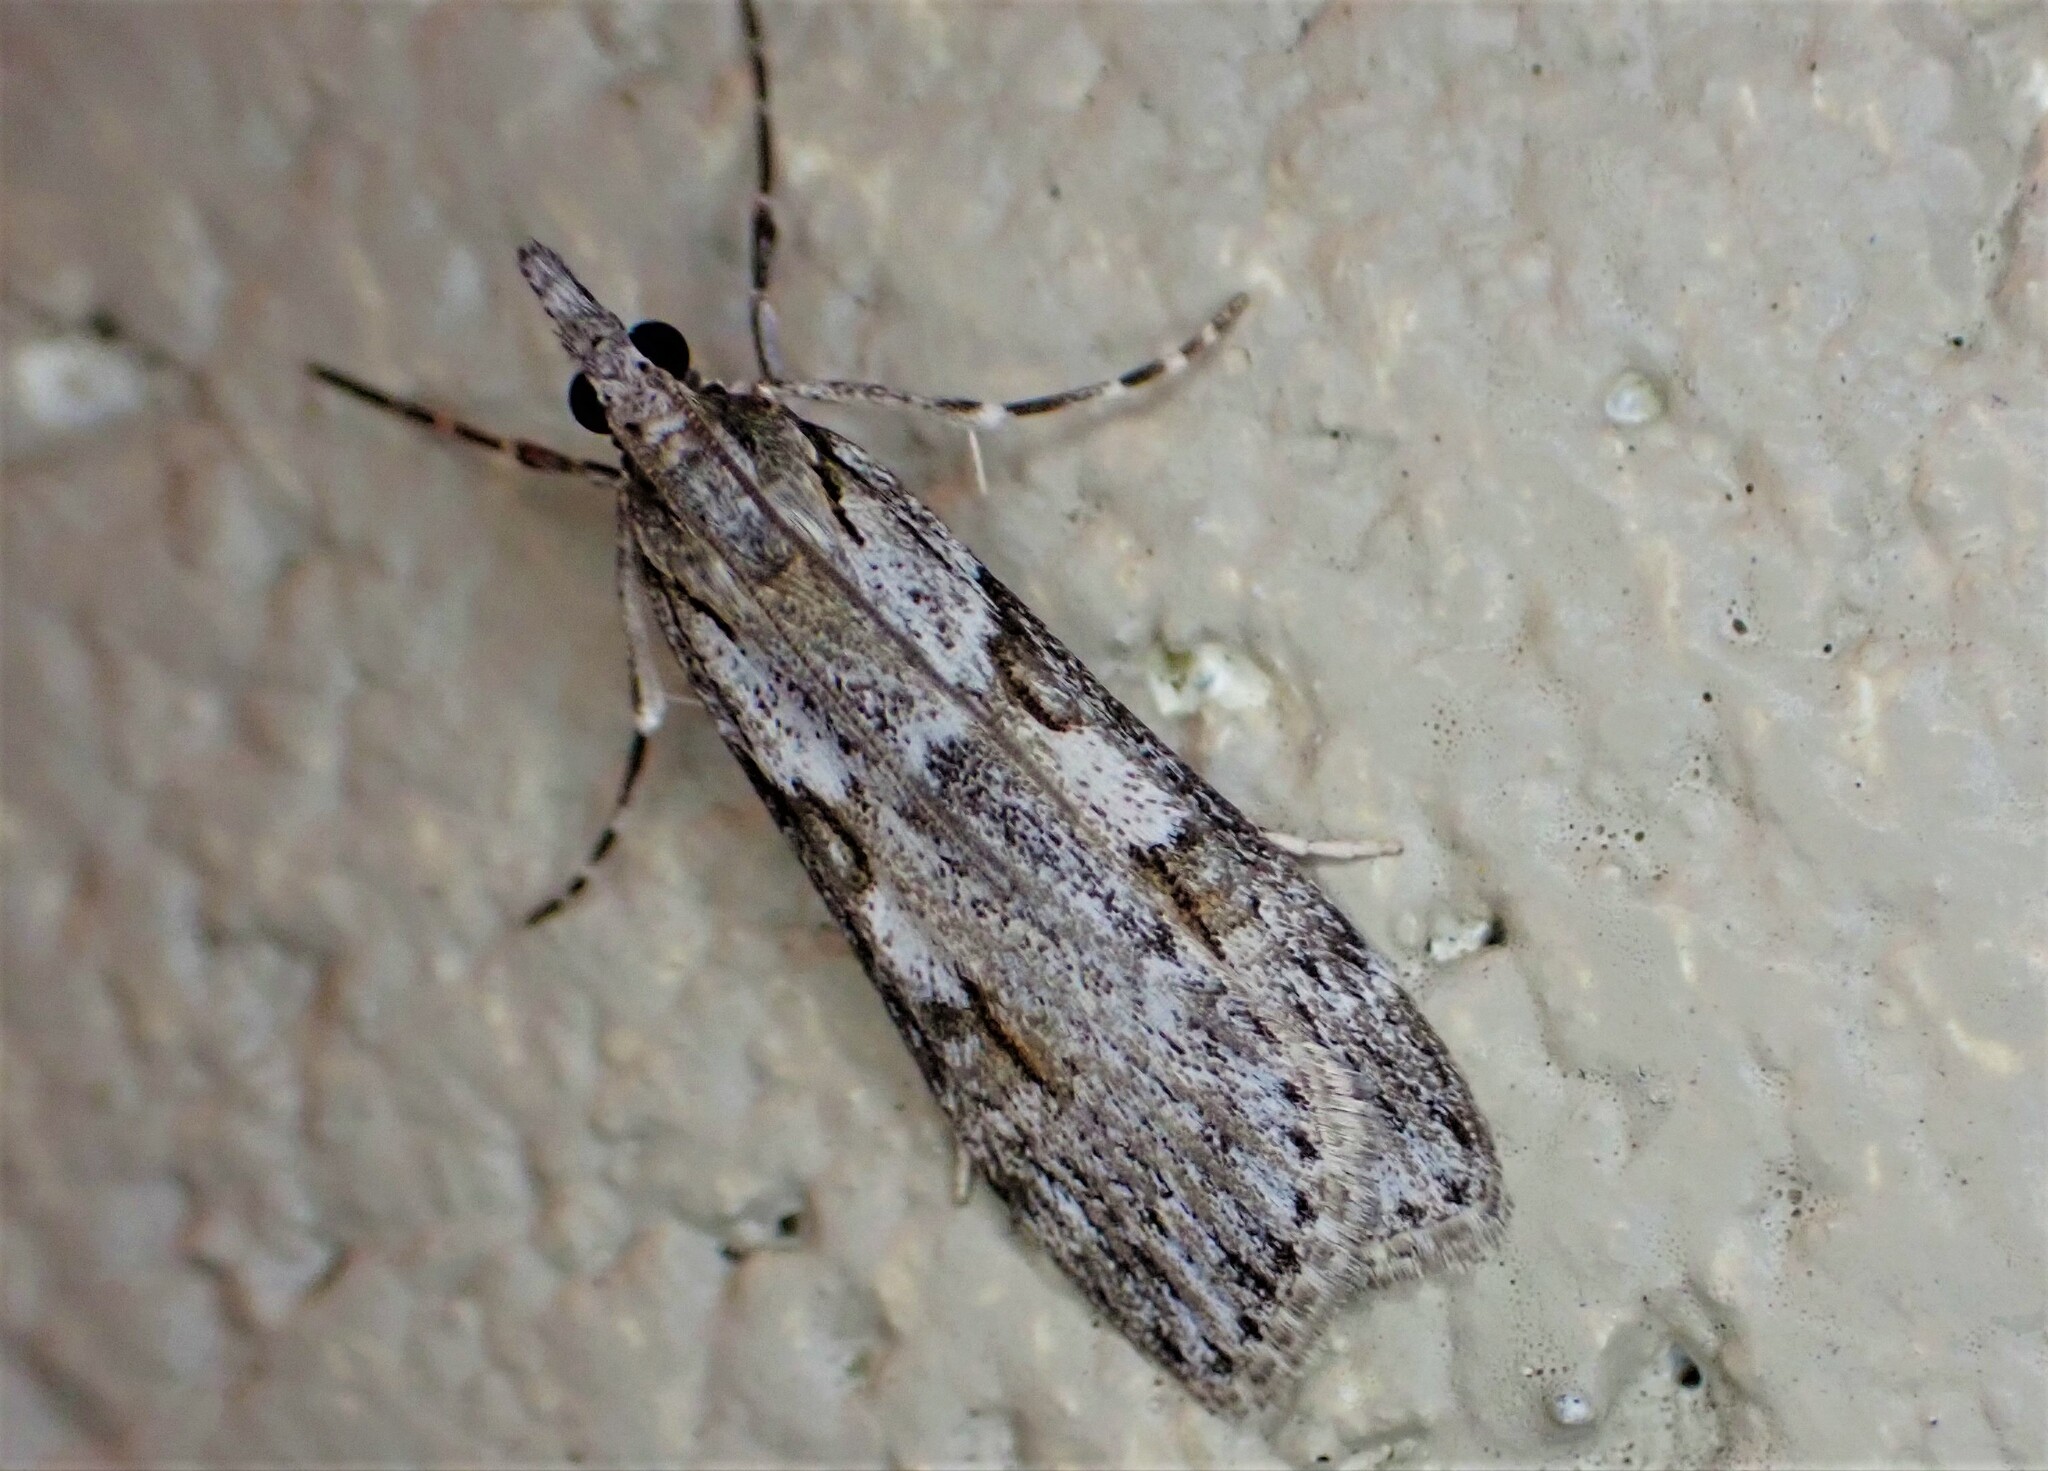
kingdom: Animalia
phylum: Arthropoda
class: Insecta
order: Lepidoptera
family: Crambidae
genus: Scoparia
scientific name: Scoparia halopis
